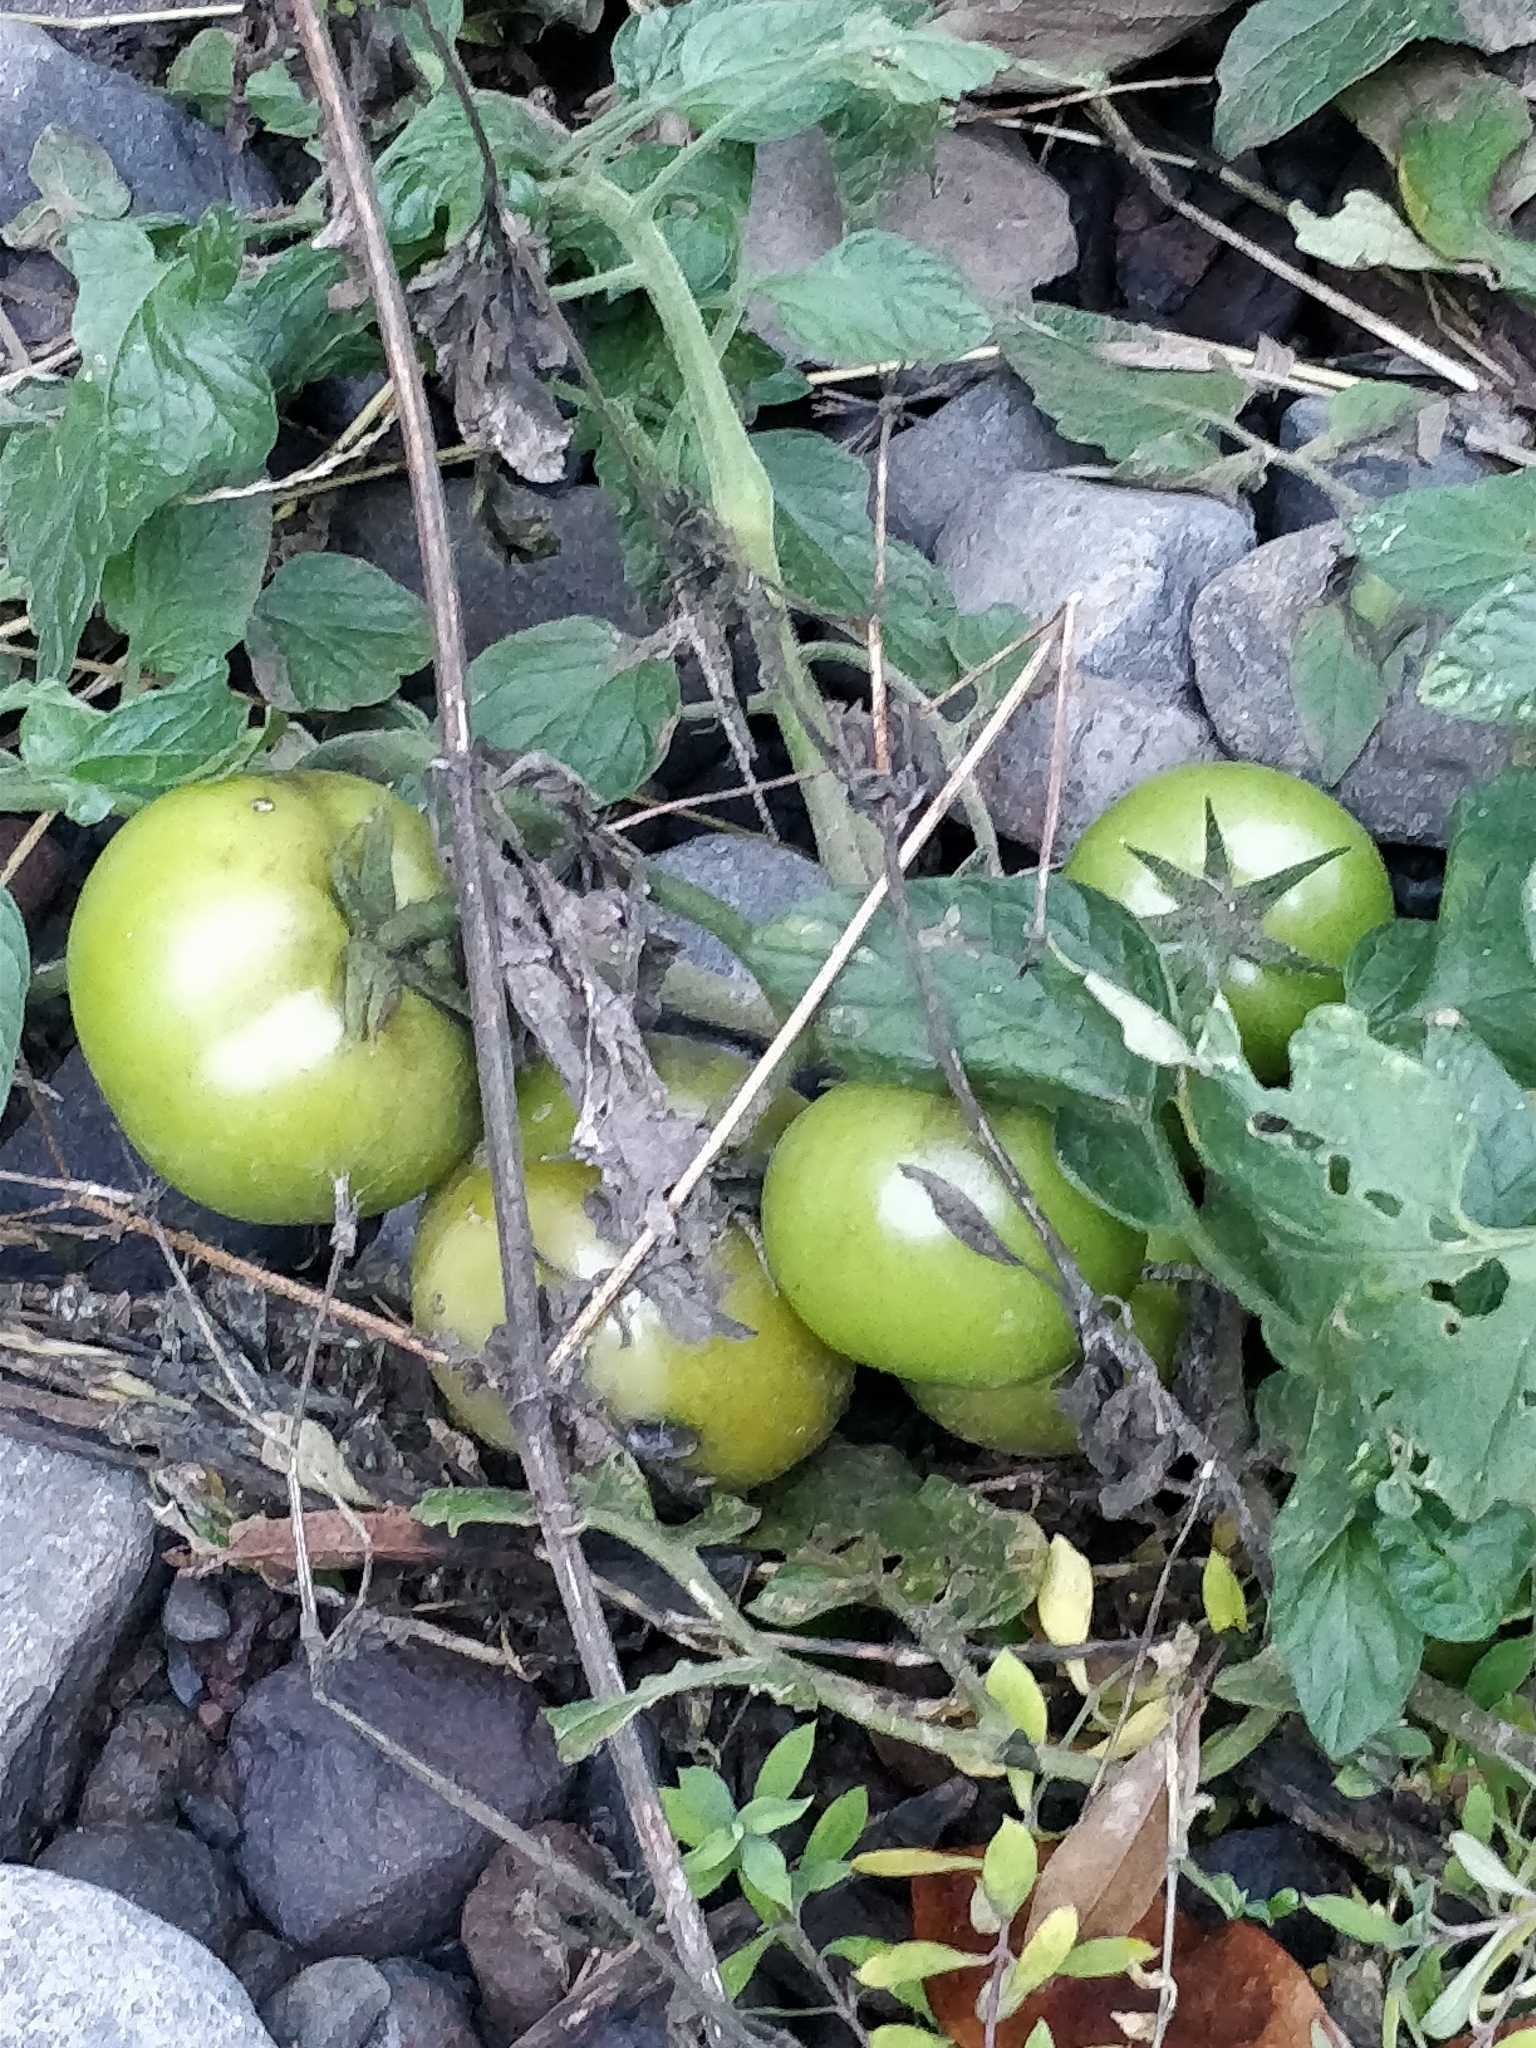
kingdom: Plantae
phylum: Tracheophyta
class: Magnoliopsida
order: Solanales
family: Solanaceae
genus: Solanum
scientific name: Solanum lycopersicum
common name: Garden tomato
